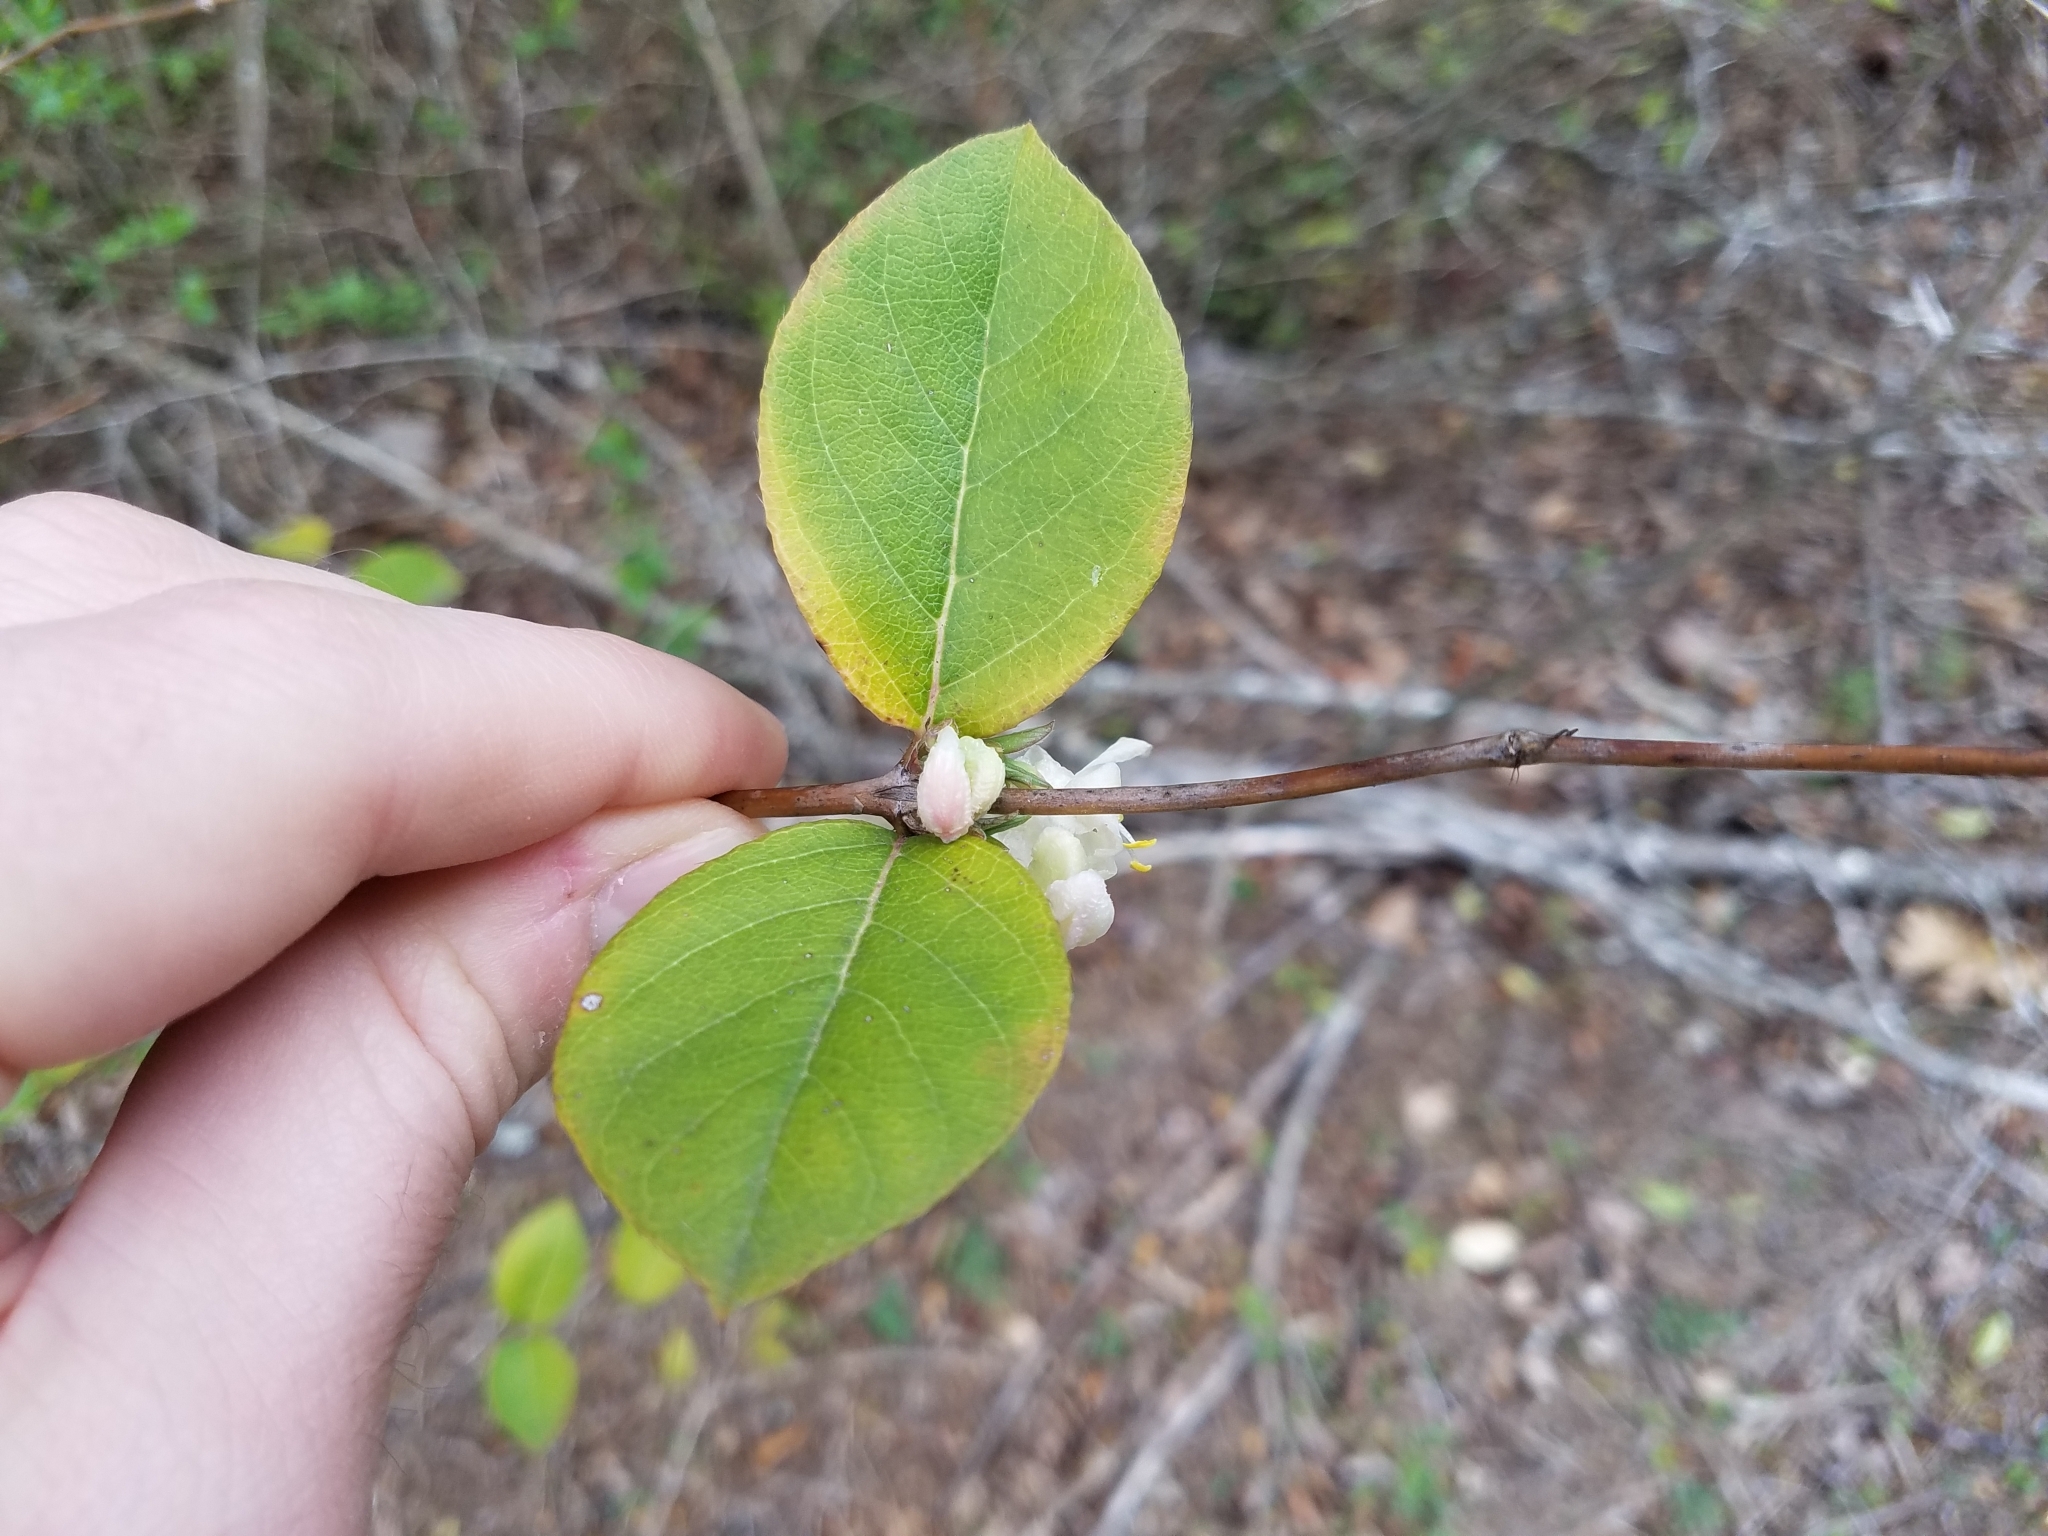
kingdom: Plantae
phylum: Tracheophyta
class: Magnoliopsida
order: Dipsacales
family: Caprifoliaceae
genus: Lonicera
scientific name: Lonicera fragrantissima
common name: Fragrant honeysuckle
